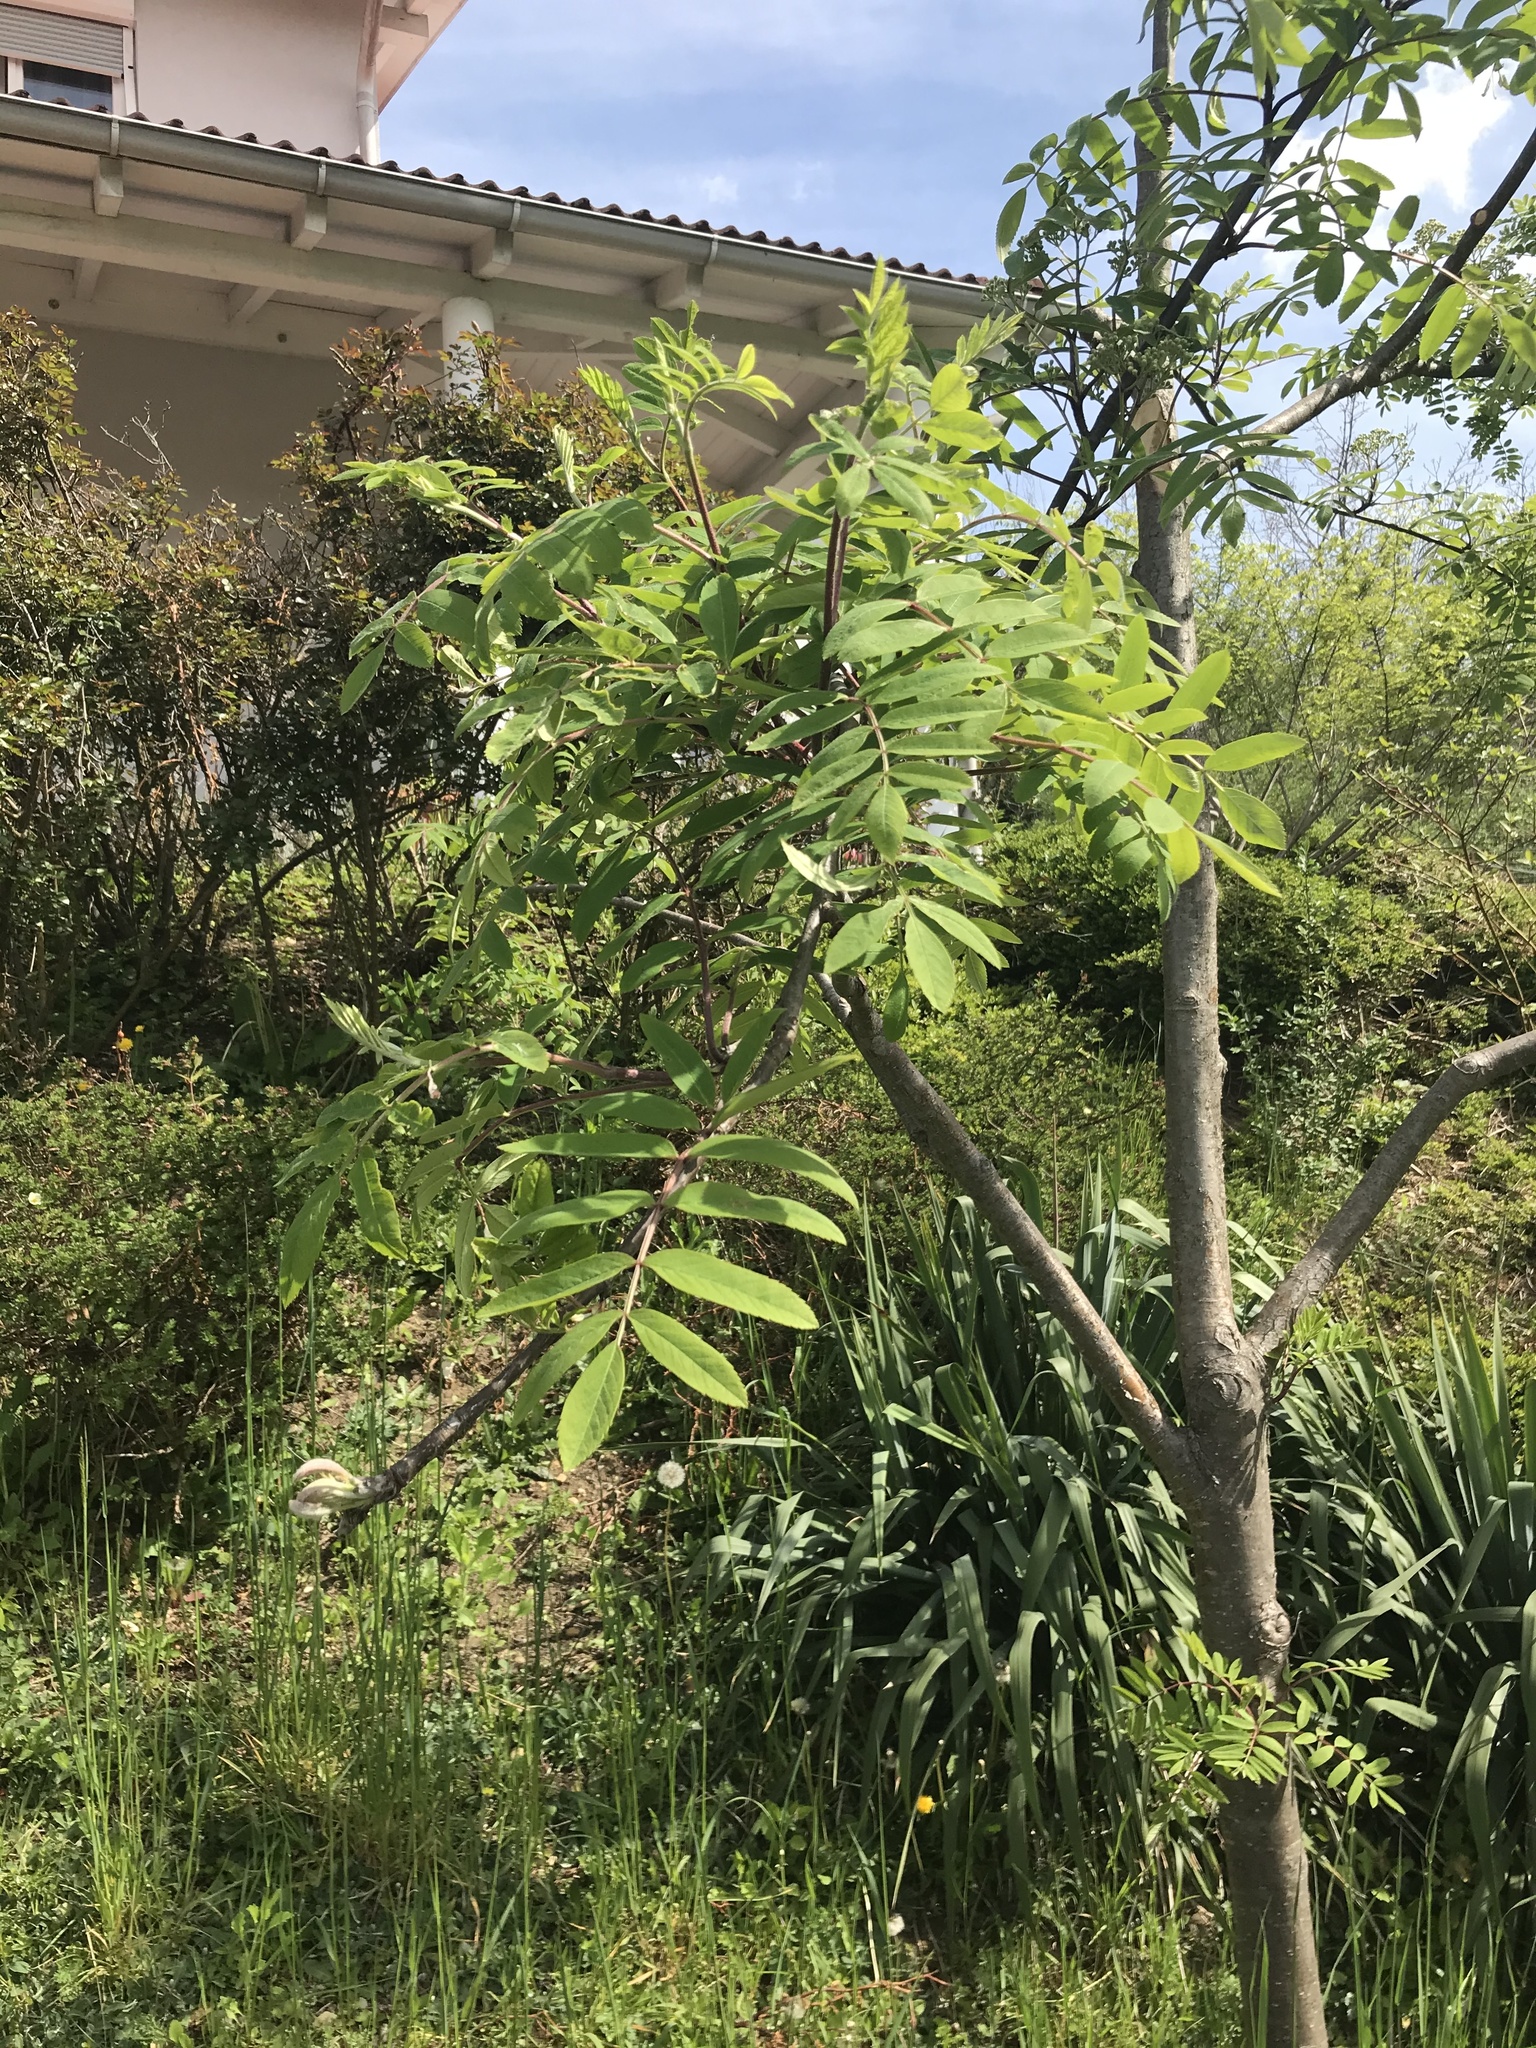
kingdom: Plantae
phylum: Tracheophyta
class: Magnoliopsida
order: Rosales
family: Rosaceae
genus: Sorbus
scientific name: Sorbus aucuparia
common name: Rowan
